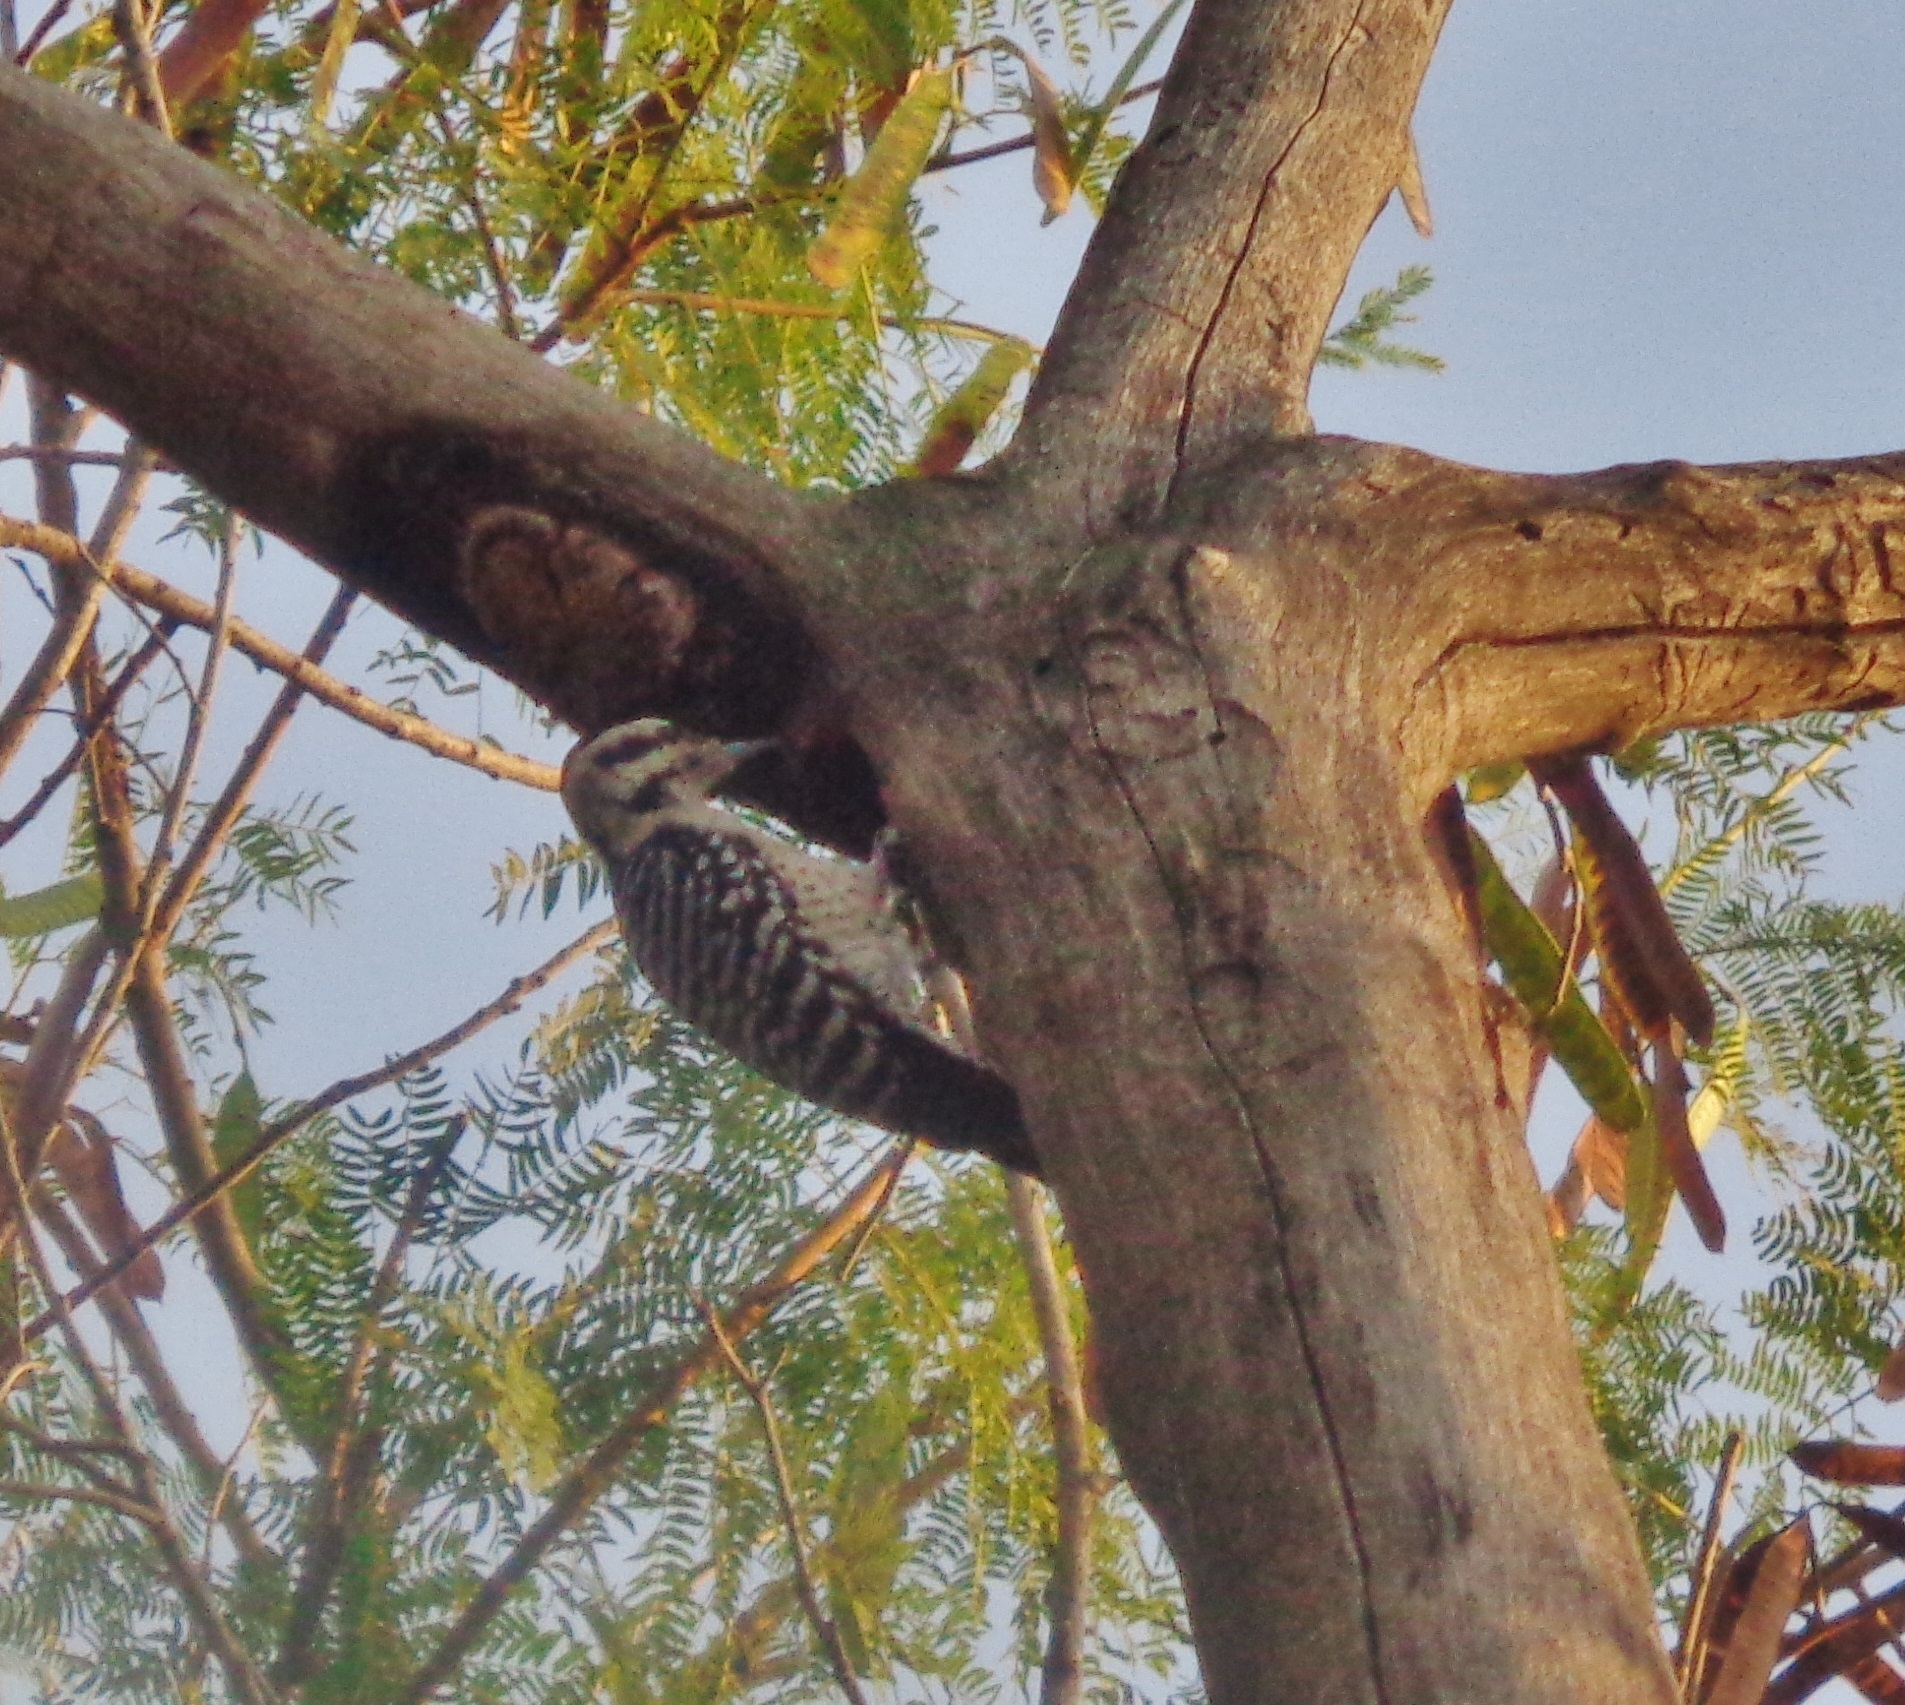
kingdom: Animalia
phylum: Chordata
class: Aves
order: Piciformes
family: Picidae
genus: Dryobates
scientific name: Dryobates scalaris
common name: Ladder-backed woodpecker
